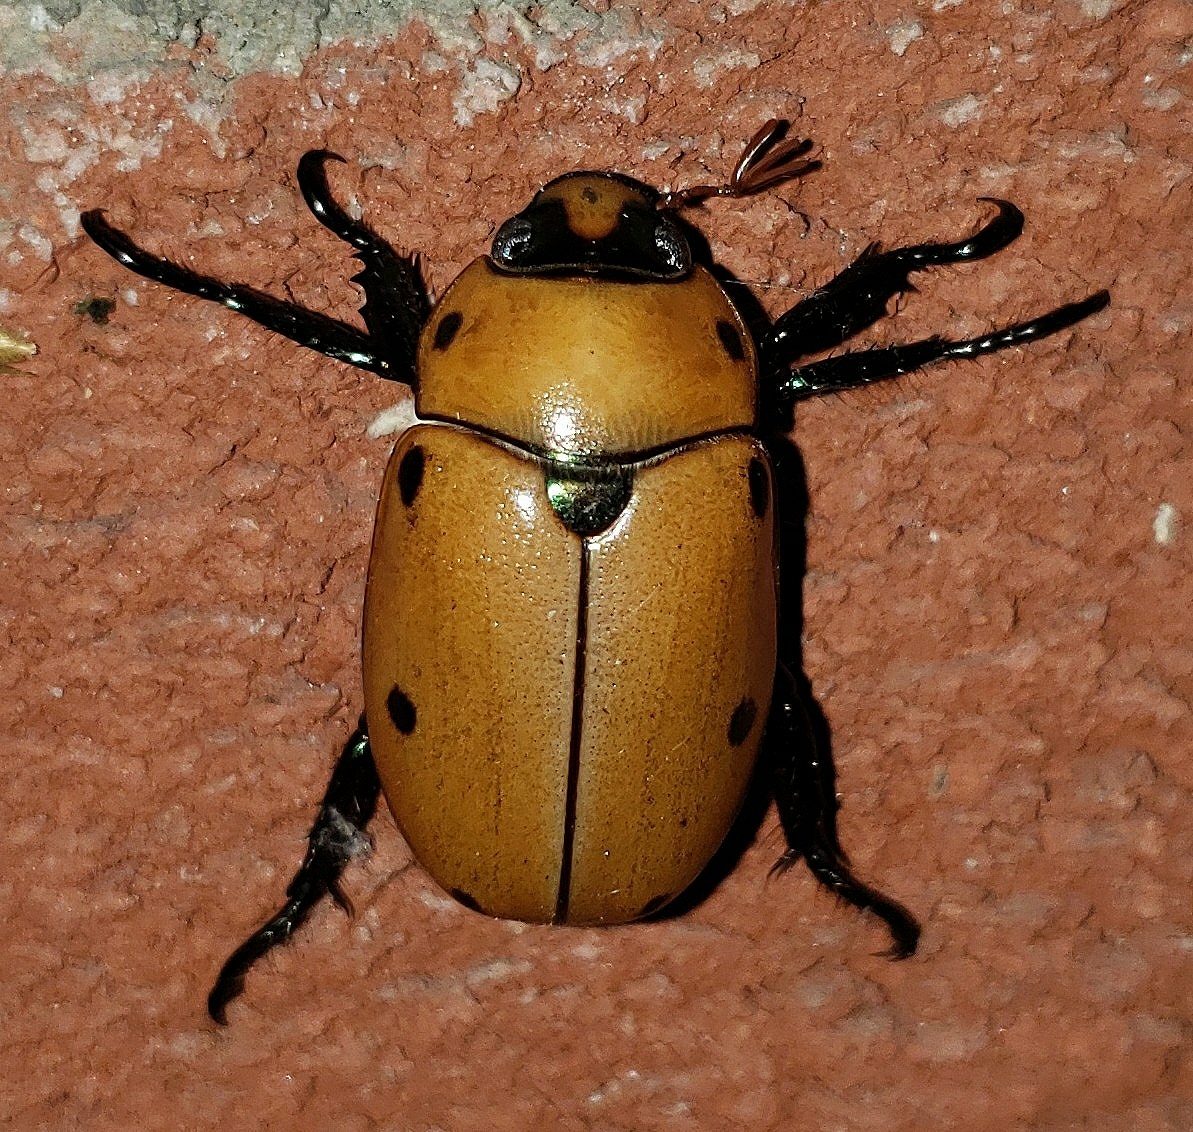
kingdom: Animalia
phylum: Arthropoda
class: Insecta
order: Coleoptera
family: Scarabaeidae
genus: Pelidnota
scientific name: Pelidnota punctata
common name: Grapevine beetle
